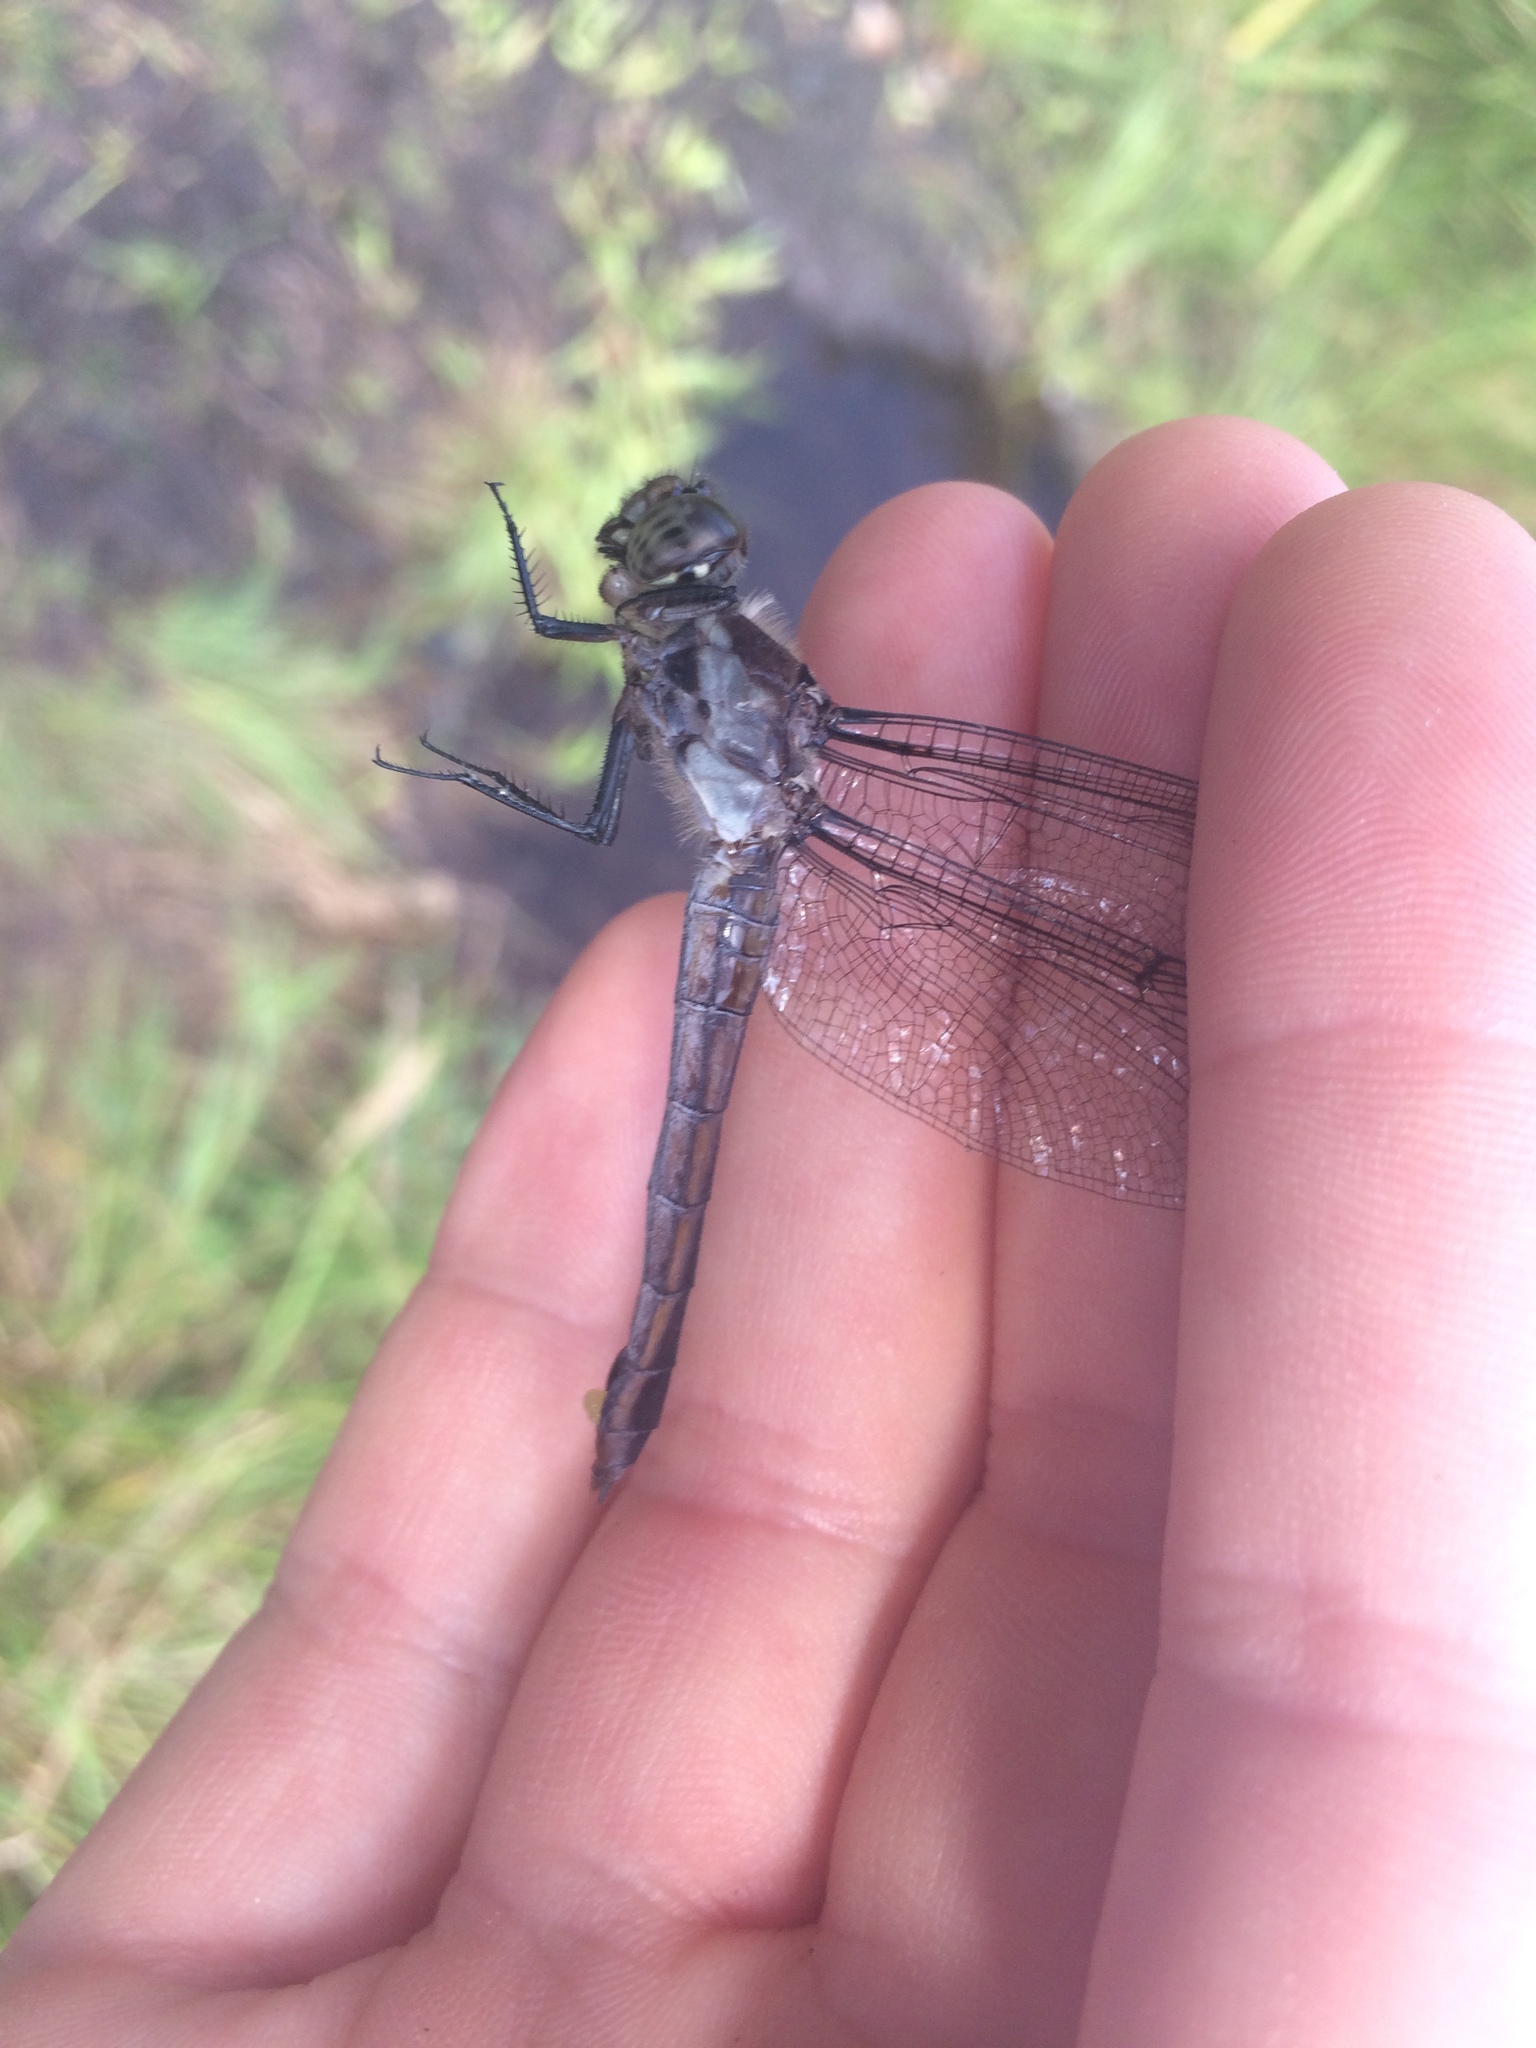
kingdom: Animalia
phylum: Arthropoda
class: Insecta
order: Odonata
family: Libellulidae
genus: Libellula
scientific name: Libellula incesta
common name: Slaty skimmer
